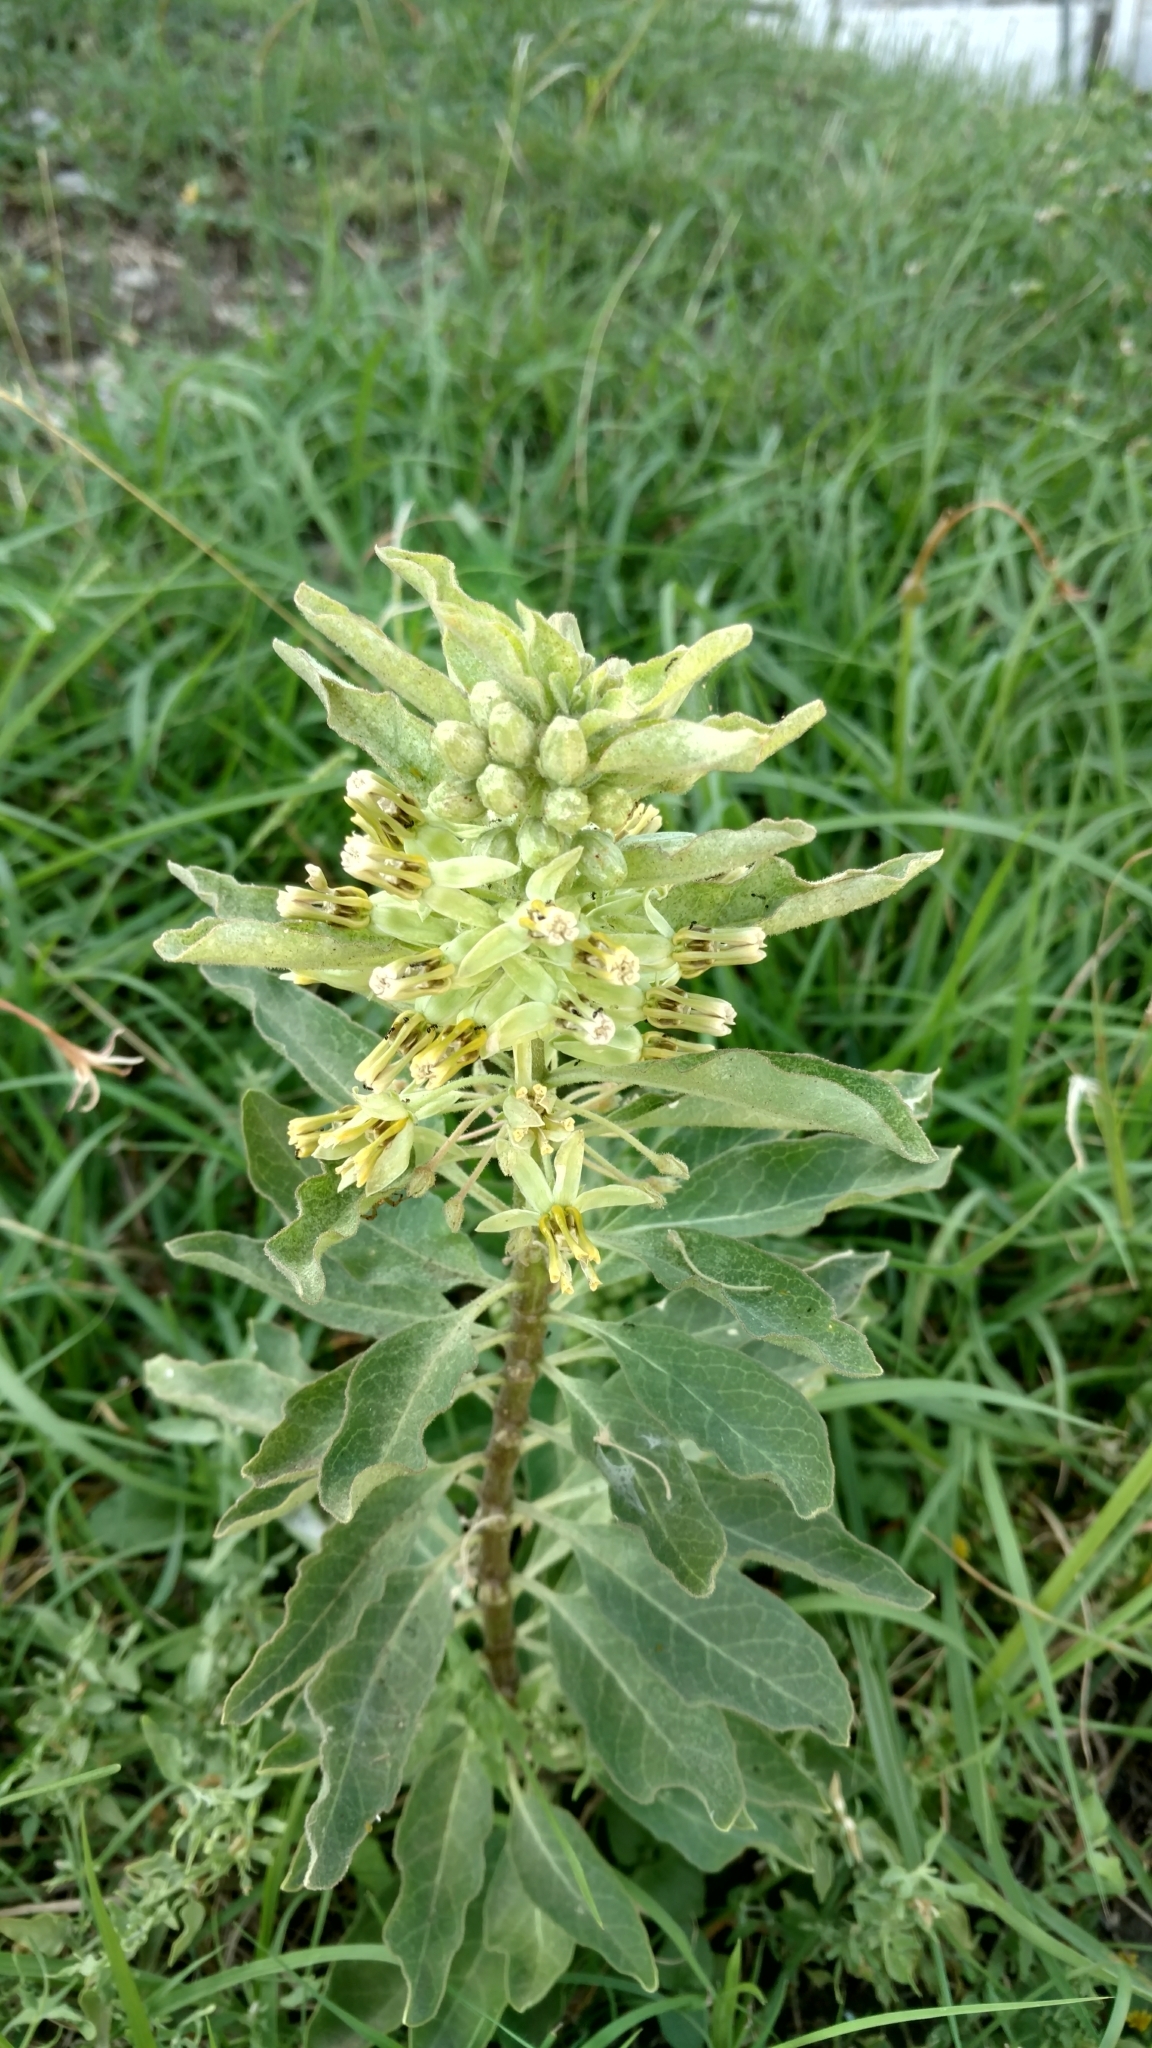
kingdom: Plantae
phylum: Tracheophyta
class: Magnoliopsida
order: Gentianales
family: Apocynaceae
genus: Asclepias
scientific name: Asclepias oenotheroides
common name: Zizotes milkweed
